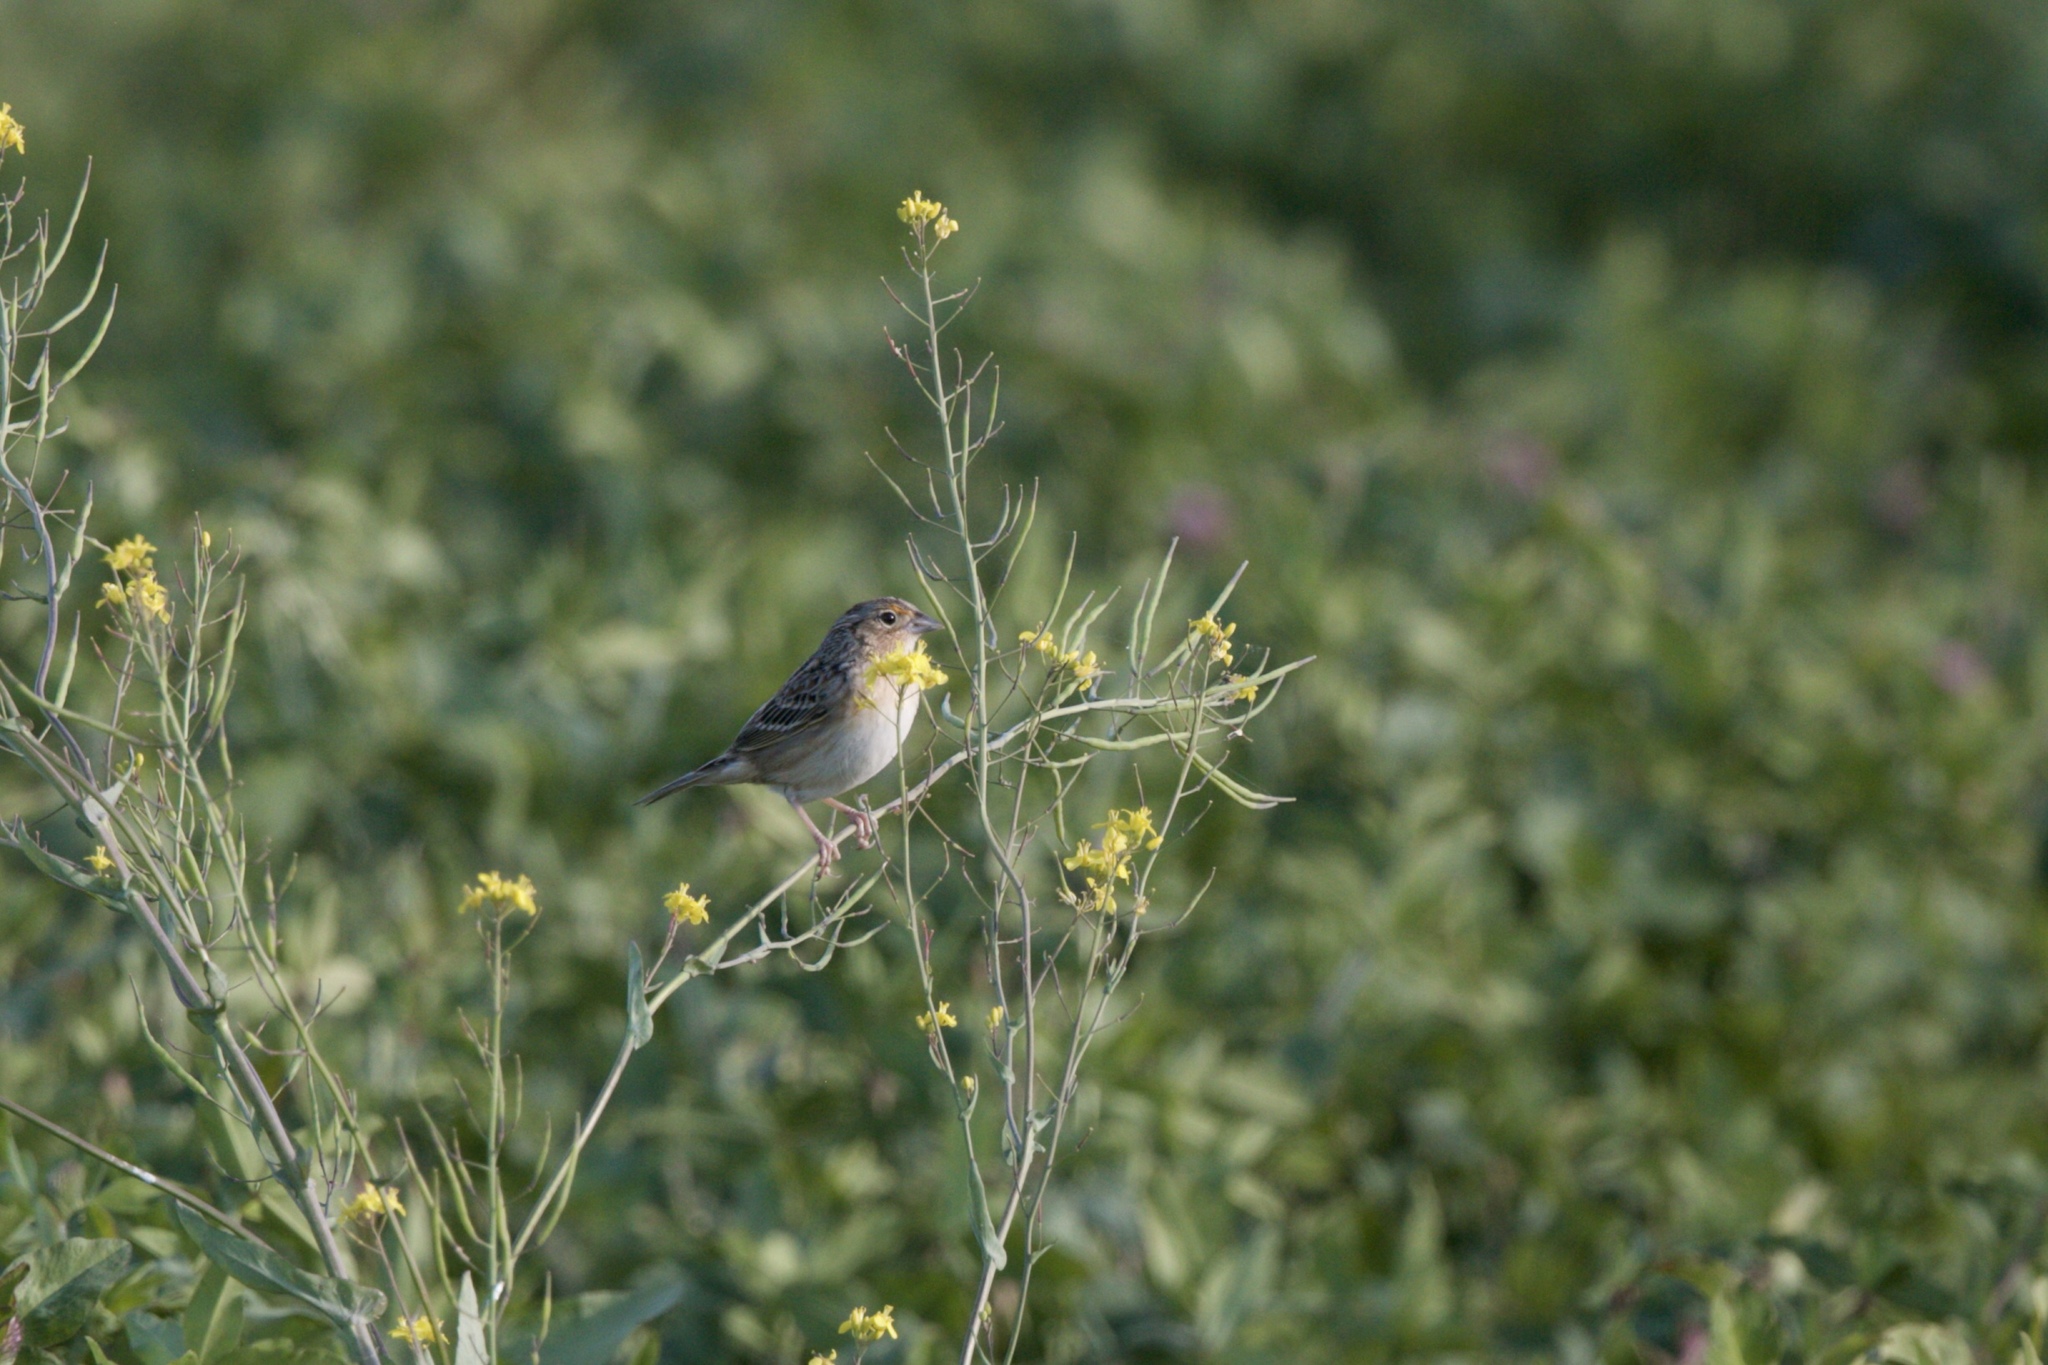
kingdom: Animalia
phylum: Chordata
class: Aves
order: Passeriformes
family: Passerellidae
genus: Ammodramus
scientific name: Ammodramus savannarum
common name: Grasshopper sparrow
